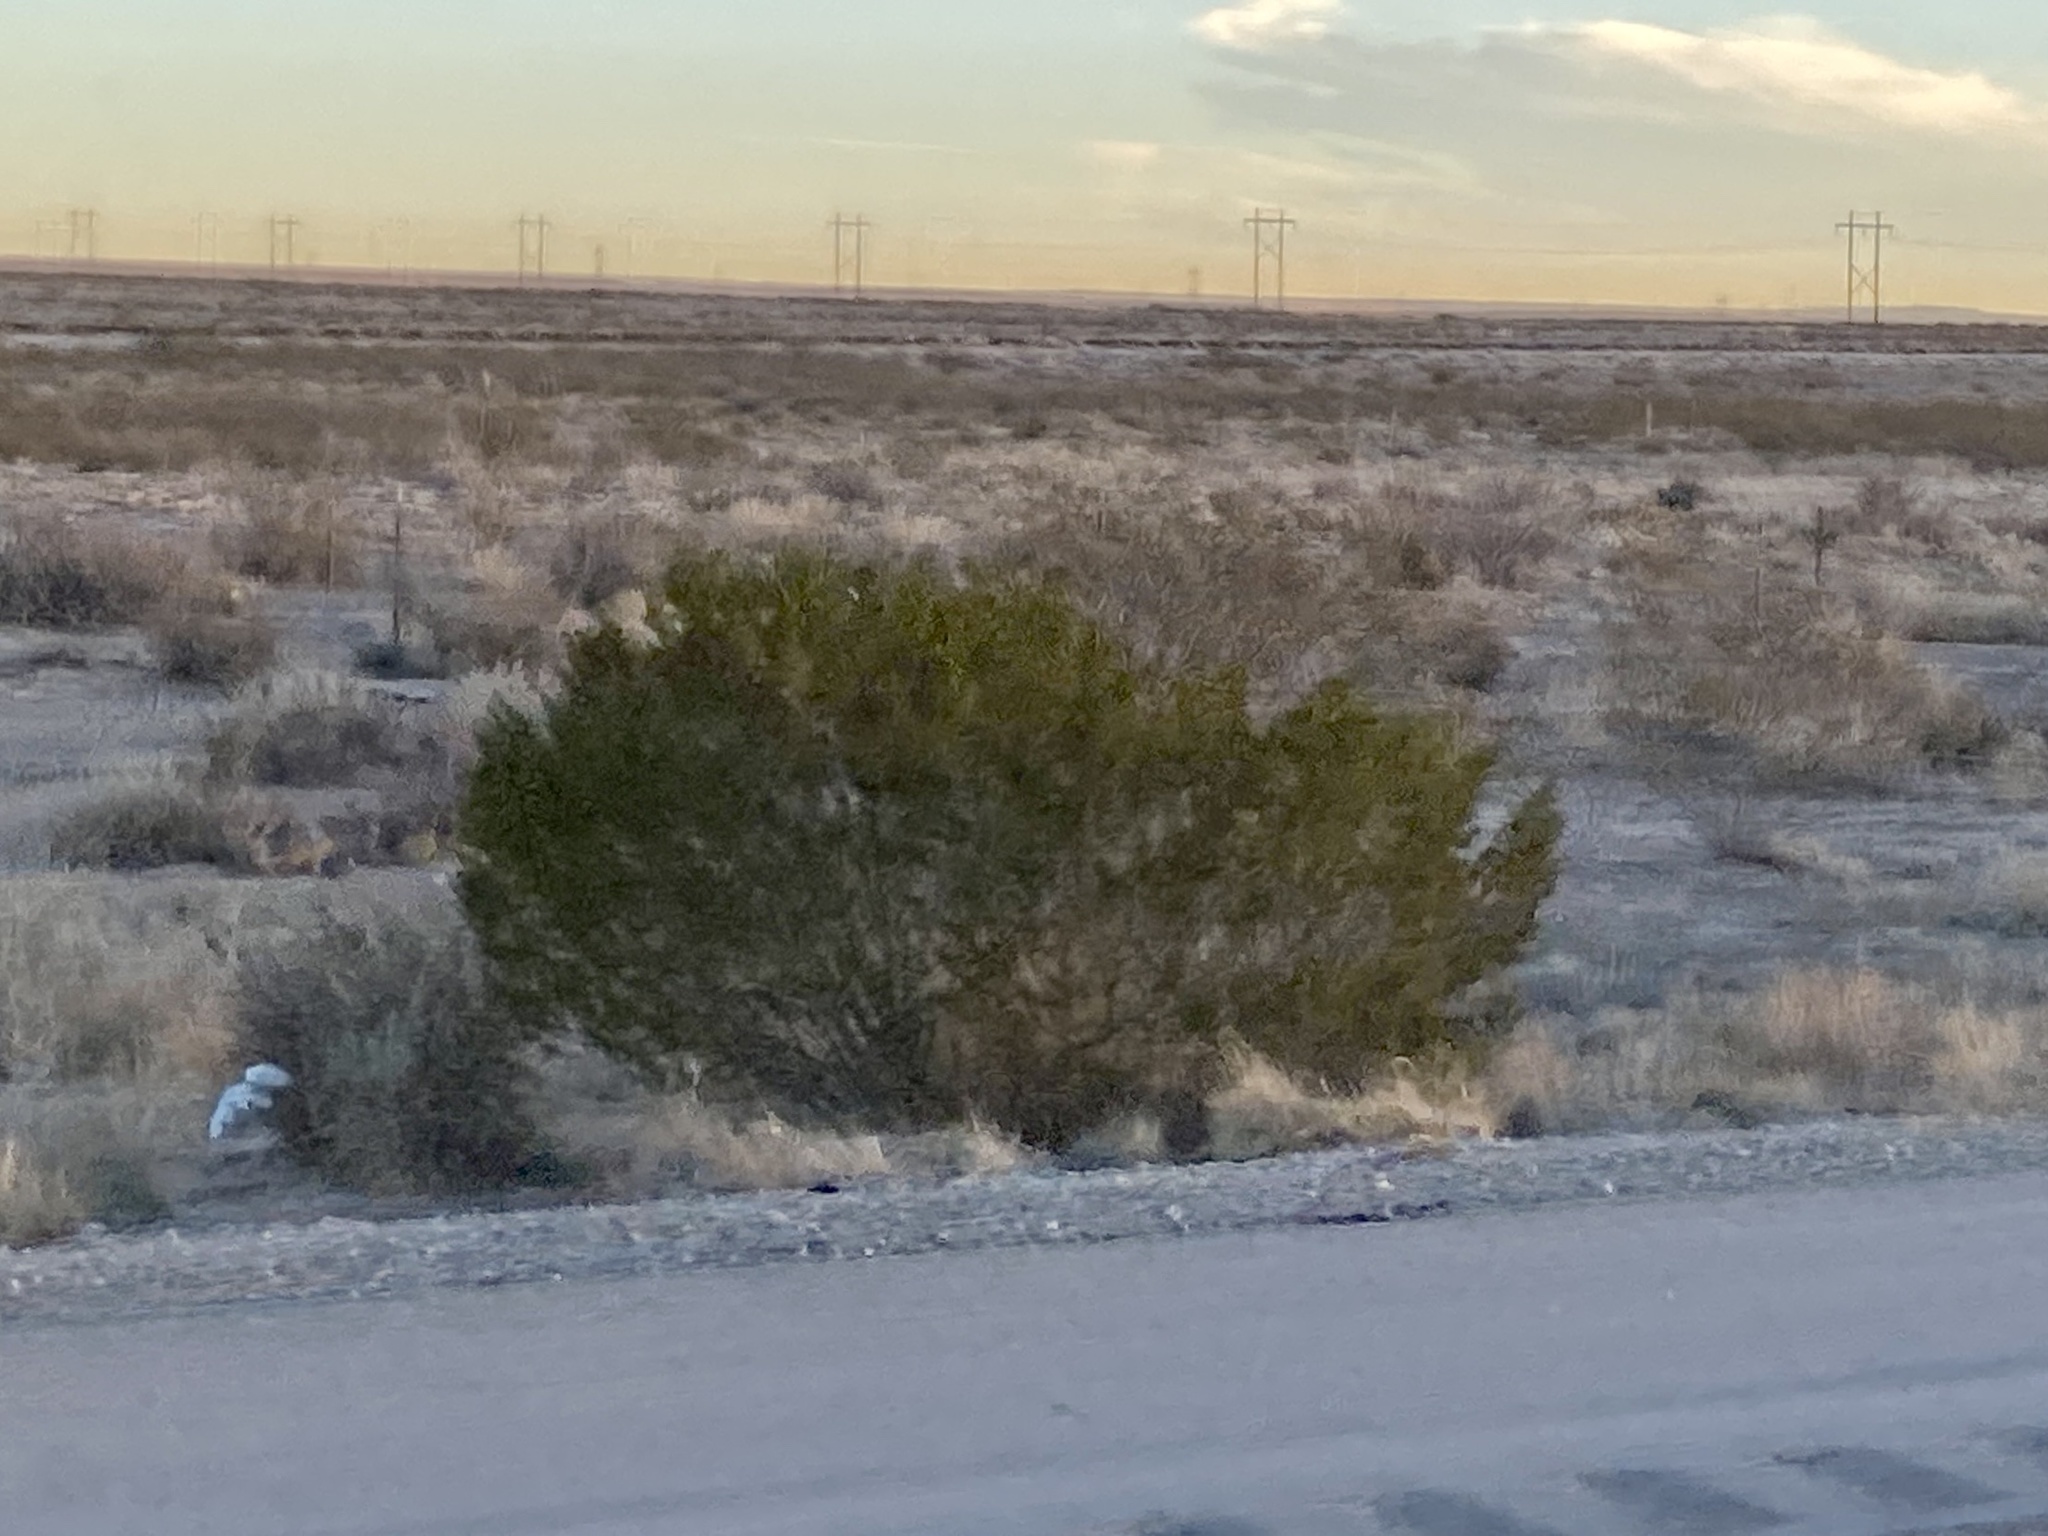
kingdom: Plantae
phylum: Tracheophyta
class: Magnoliopsida
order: Zygophyllales
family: Zygophyllaceae
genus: Larrea
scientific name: Larrea tridentata
